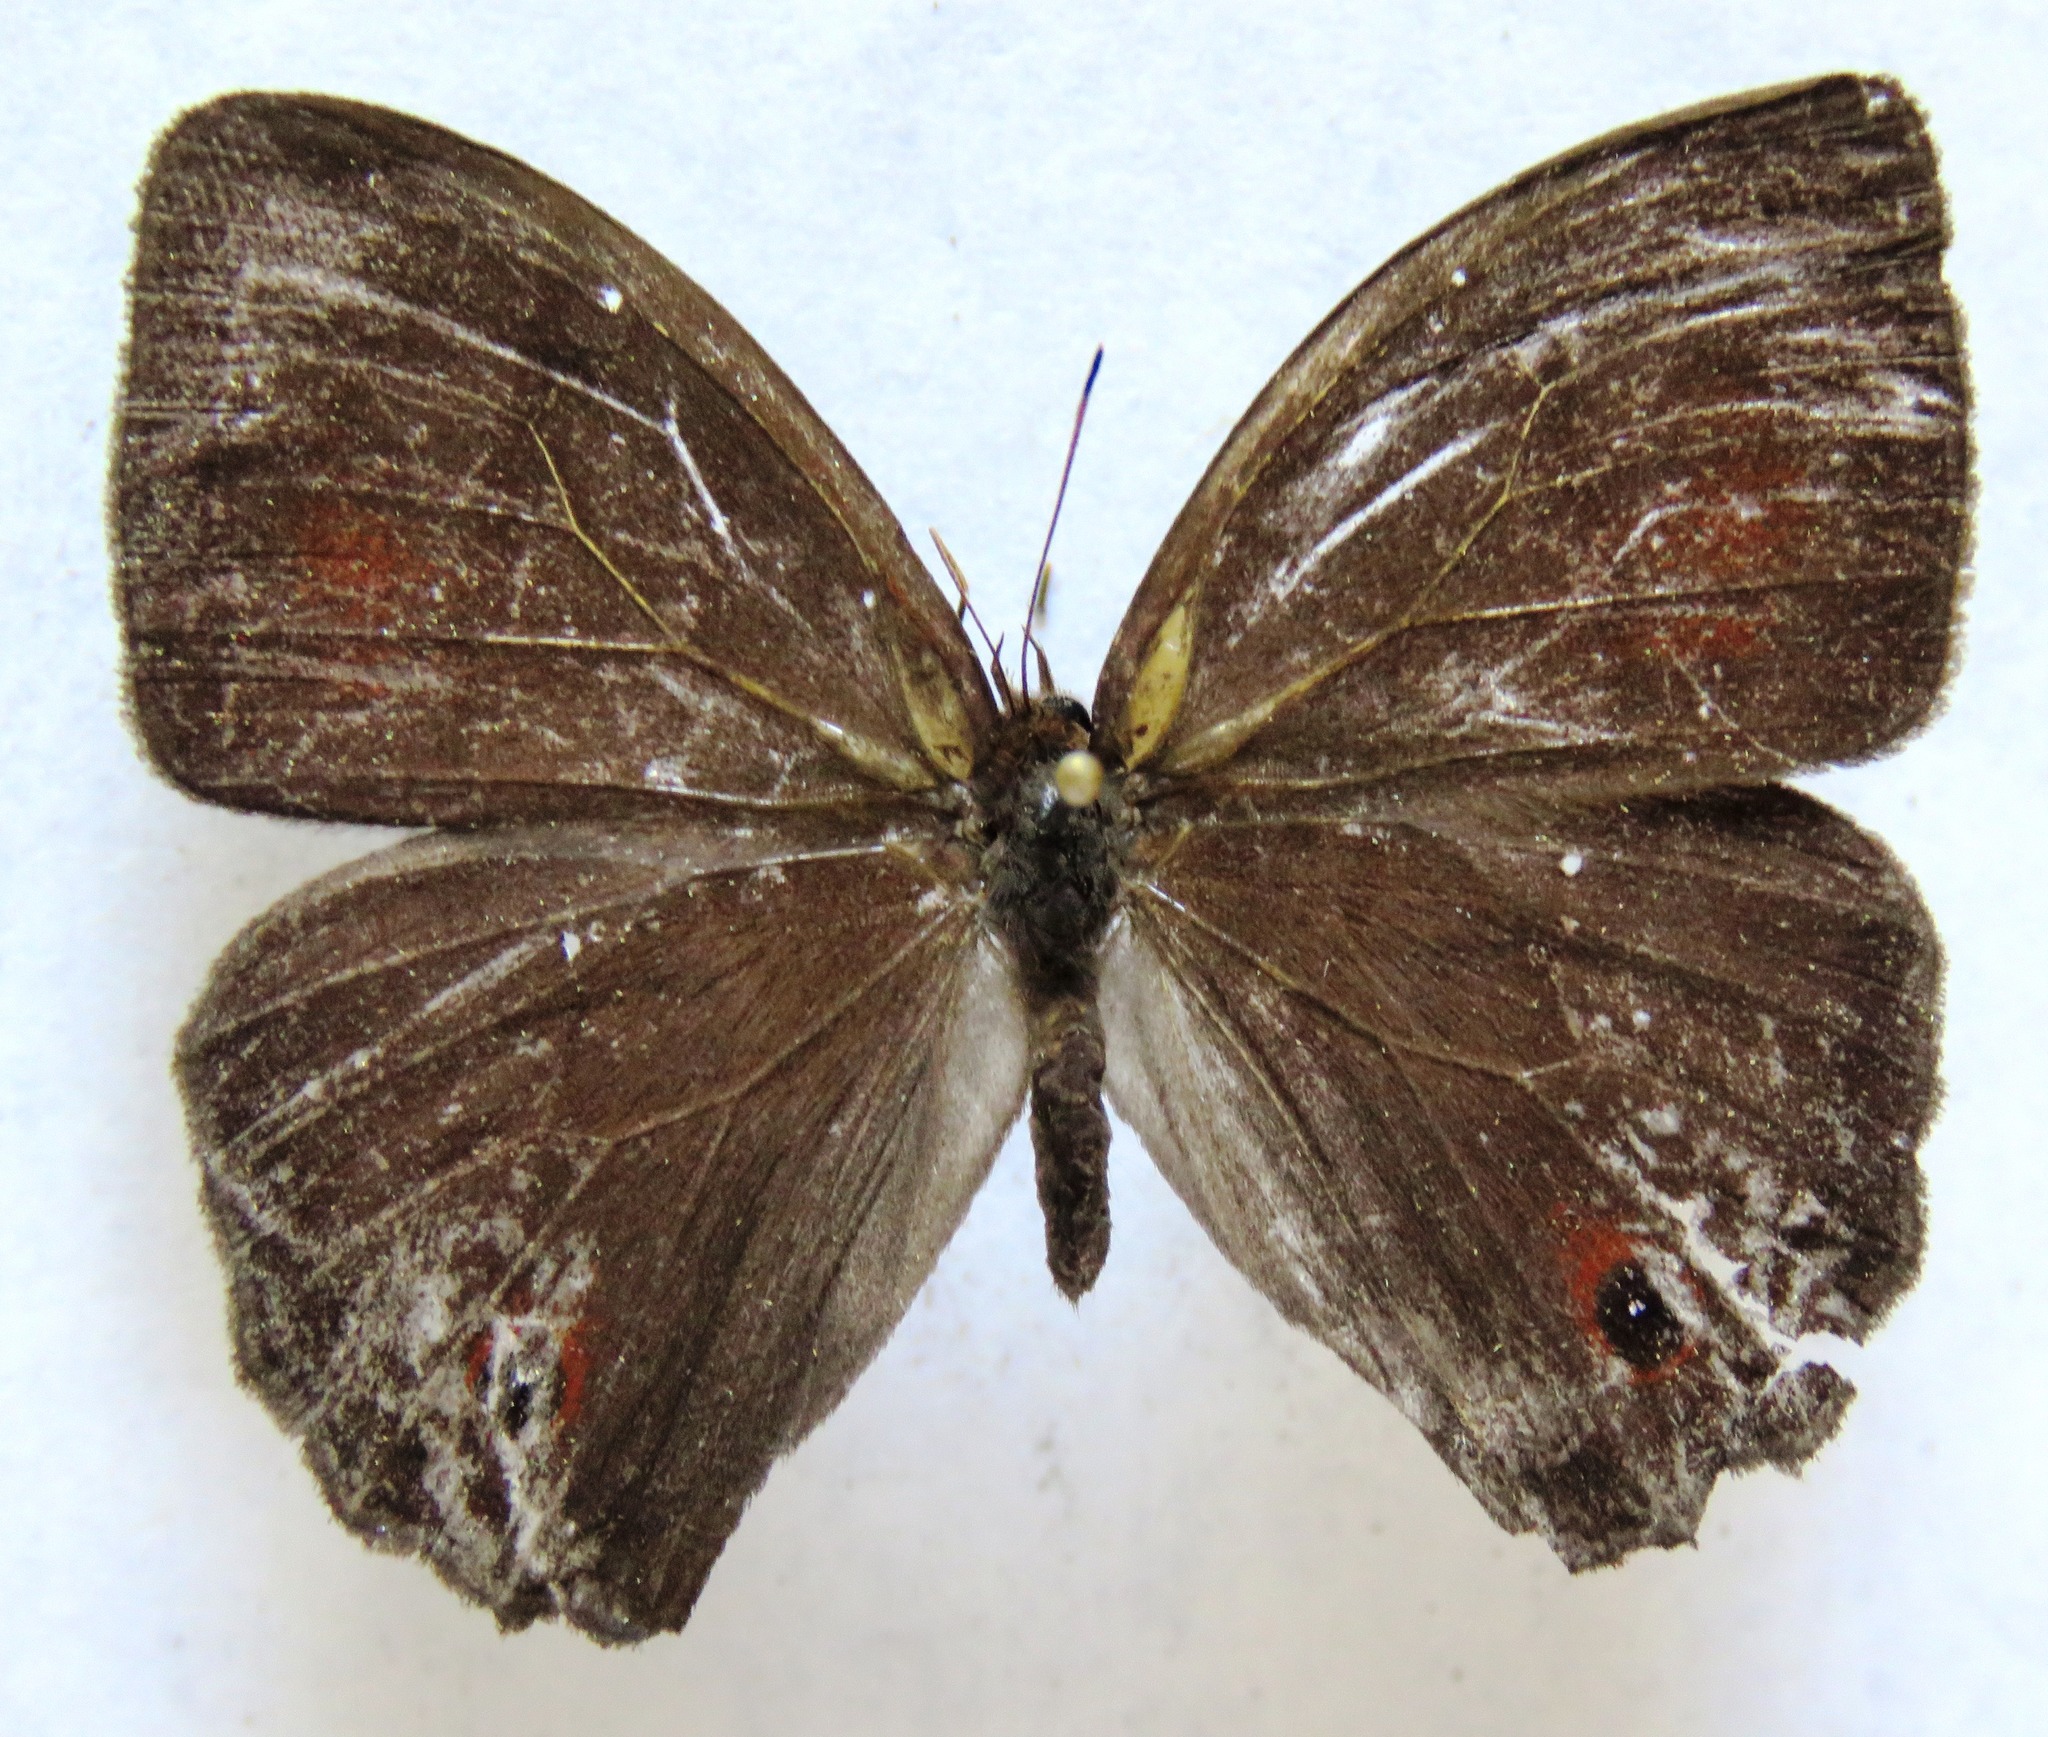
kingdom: Animalia
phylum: Arthropoda
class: Insecta
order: Lepidoptera
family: Nymphalidae
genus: Satyrotaygetis
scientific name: Satyrotaygetis satyrina
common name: Wide-bordered satyr
